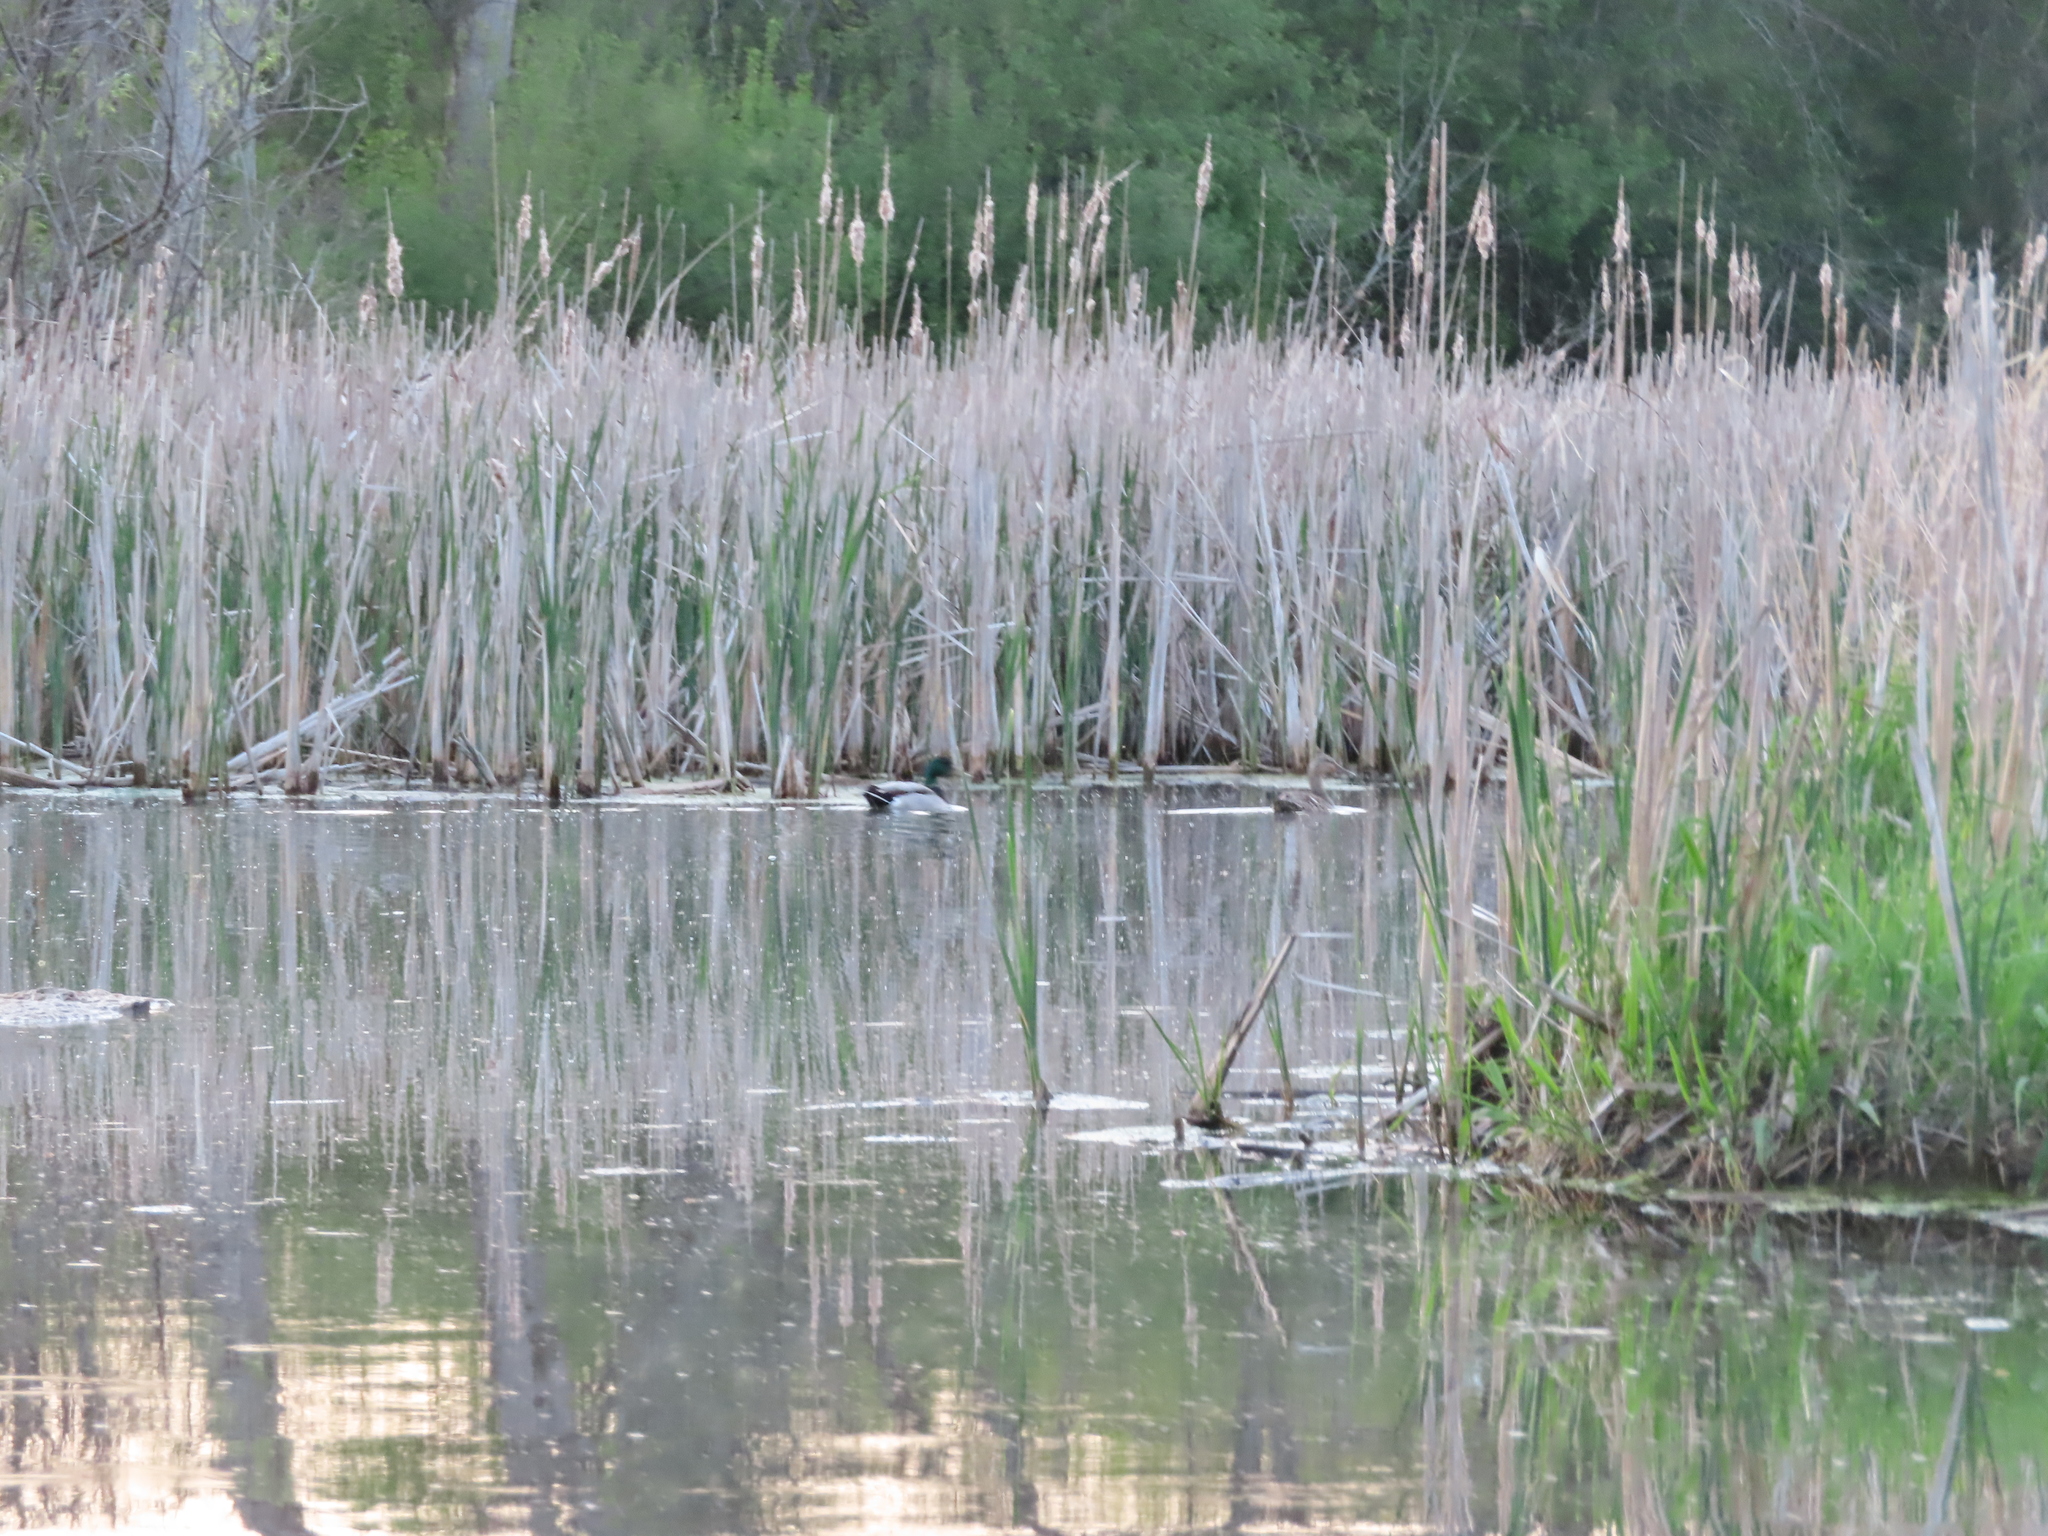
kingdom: Animalia
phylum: Chordata
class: Aves
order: Anseriformes
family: Anatidae
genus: Anas
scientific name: Anas platyrhynchos
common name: Mallard
